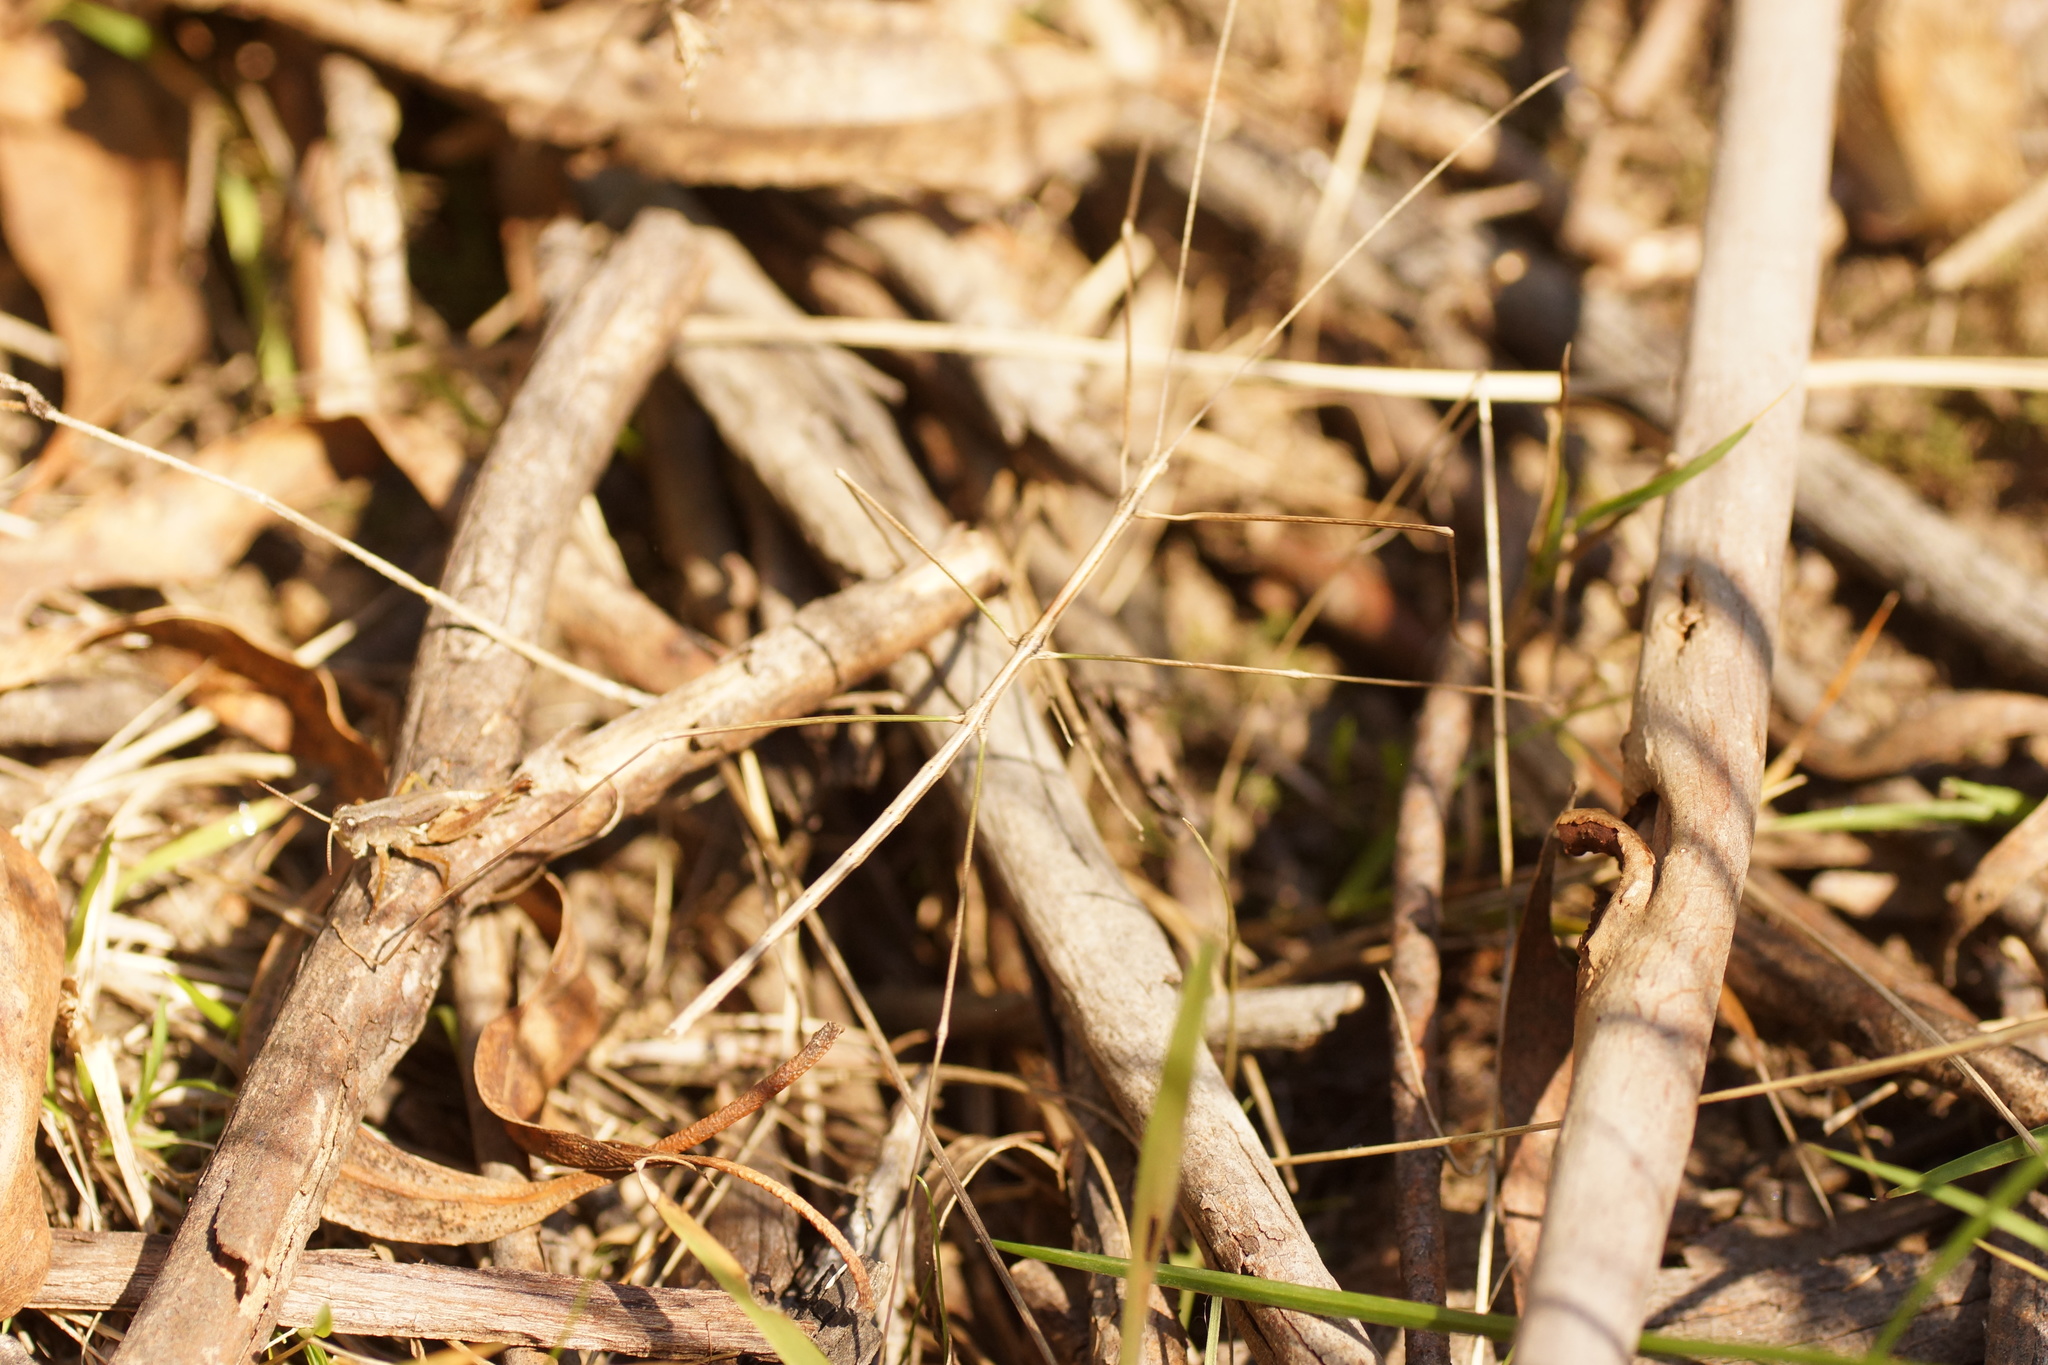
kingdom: Animalia
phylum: Arthropoda
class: Insecta
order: Phasmida
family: Lonchodidae
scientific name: Lonchodidae
